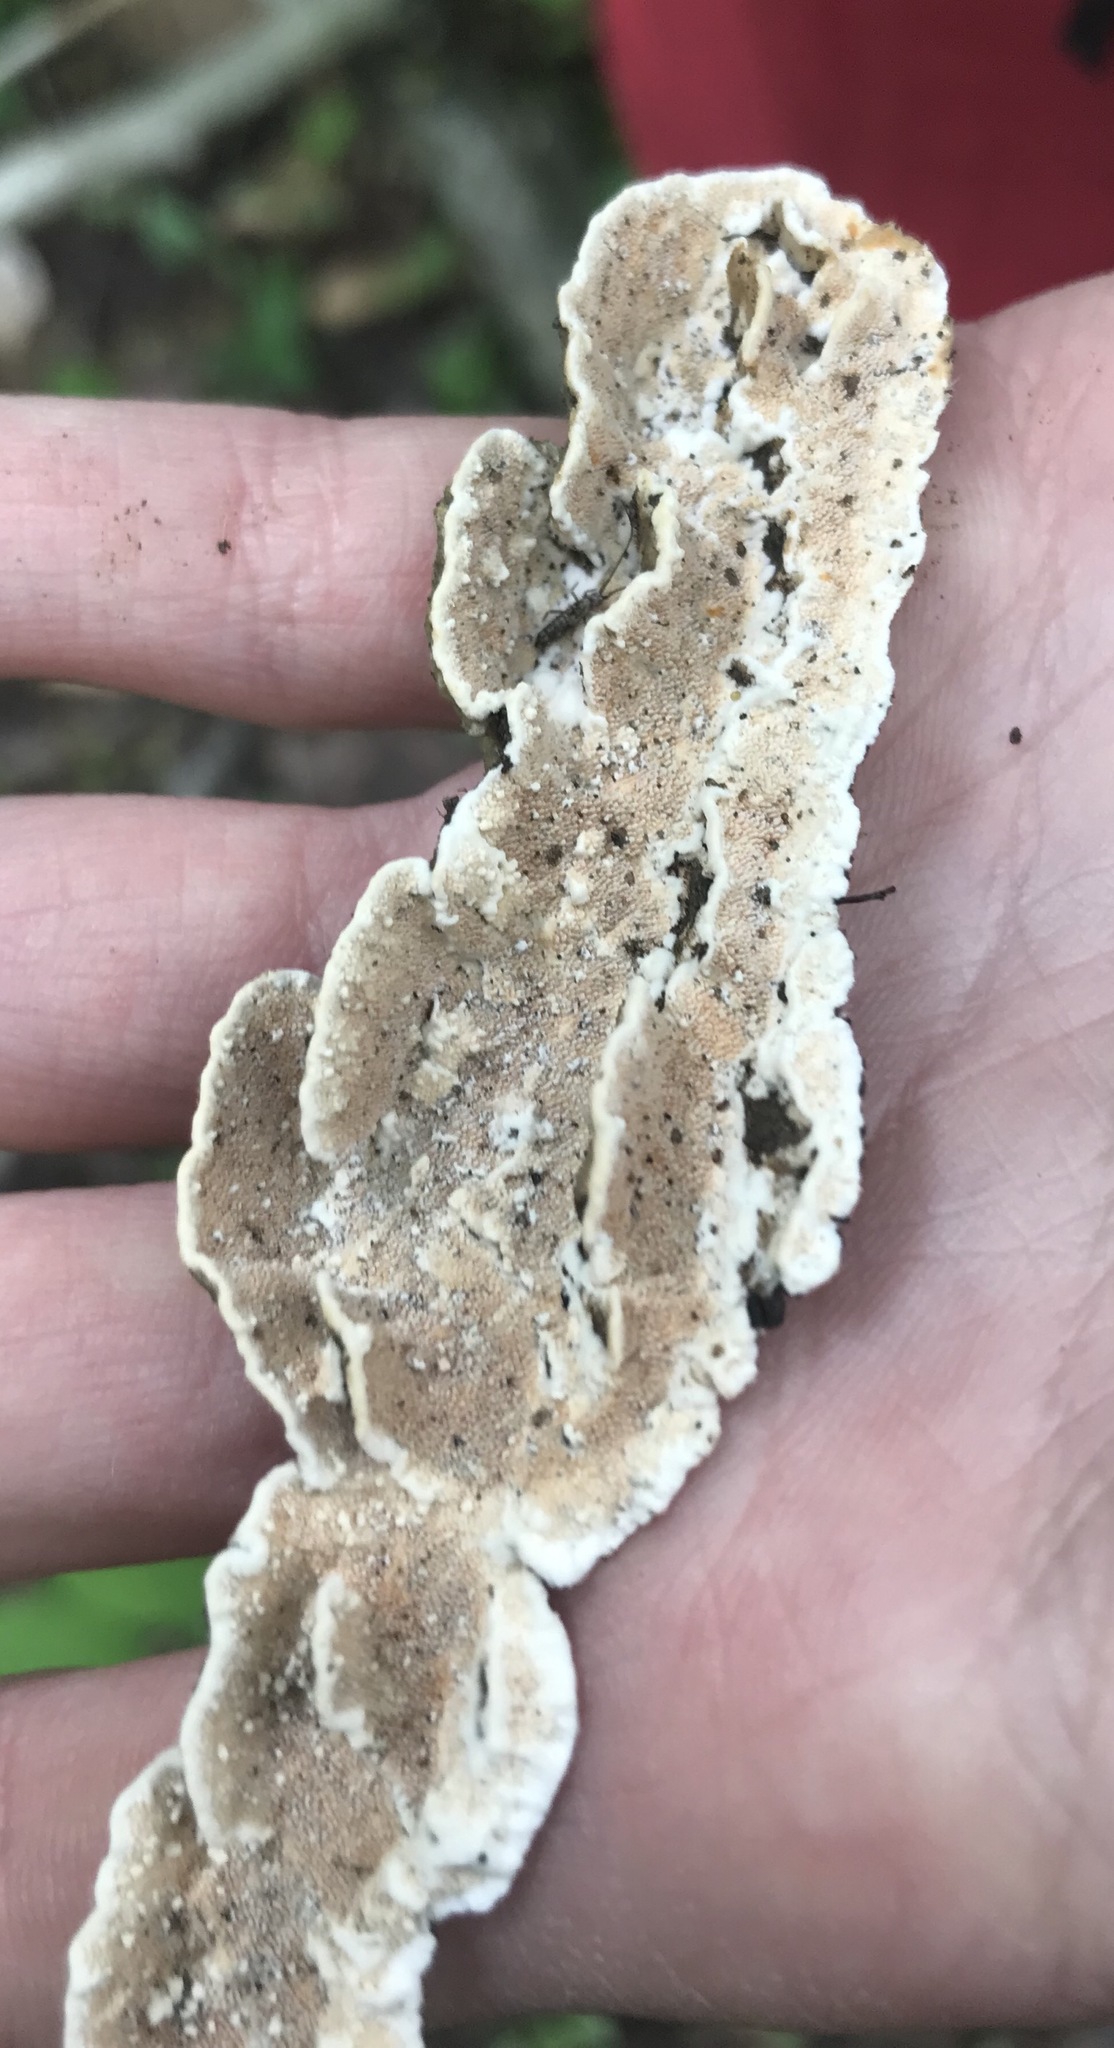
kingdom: Fungi
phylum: Basidiomycota
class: Agaricomycetes
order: Polyporales
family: Steccherinaceae
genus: Steccherinum
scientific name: Steccherinum ochraceum
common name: Ochre spreading tooth
